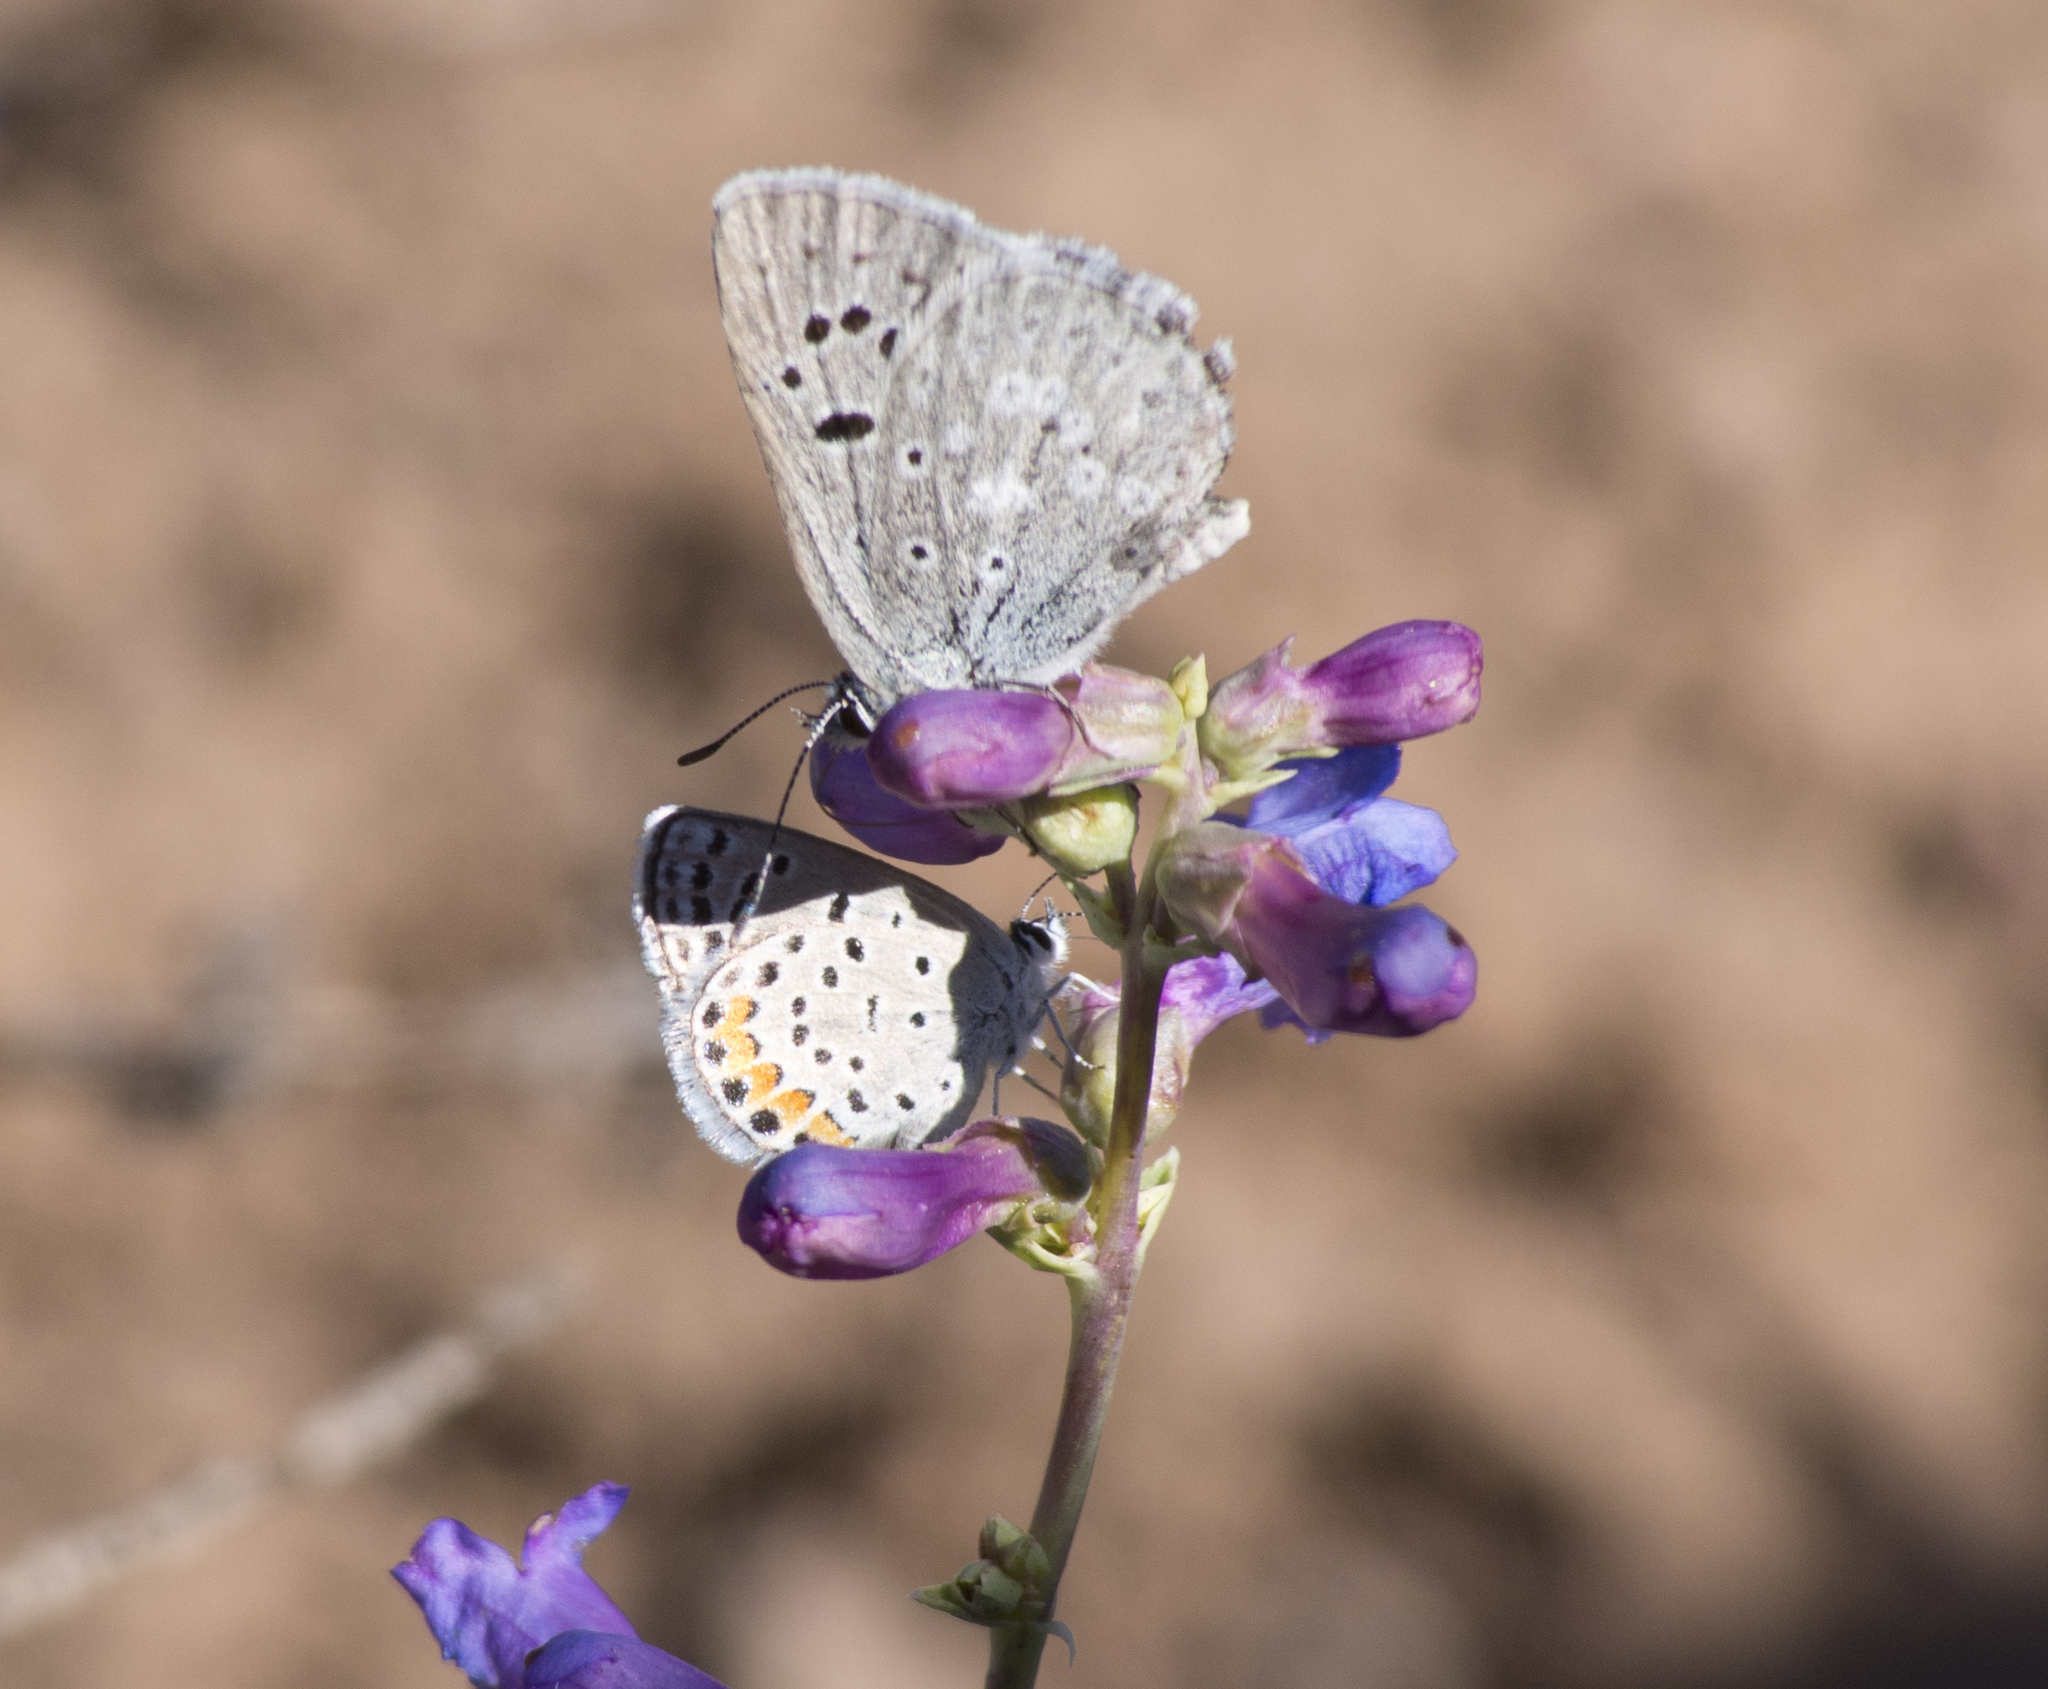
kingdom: Animalia
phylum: Arthropoda
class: Insecta
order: Lepidoptera
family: Lycaenidae
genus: Icaricia
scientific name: Icaricia lupini
